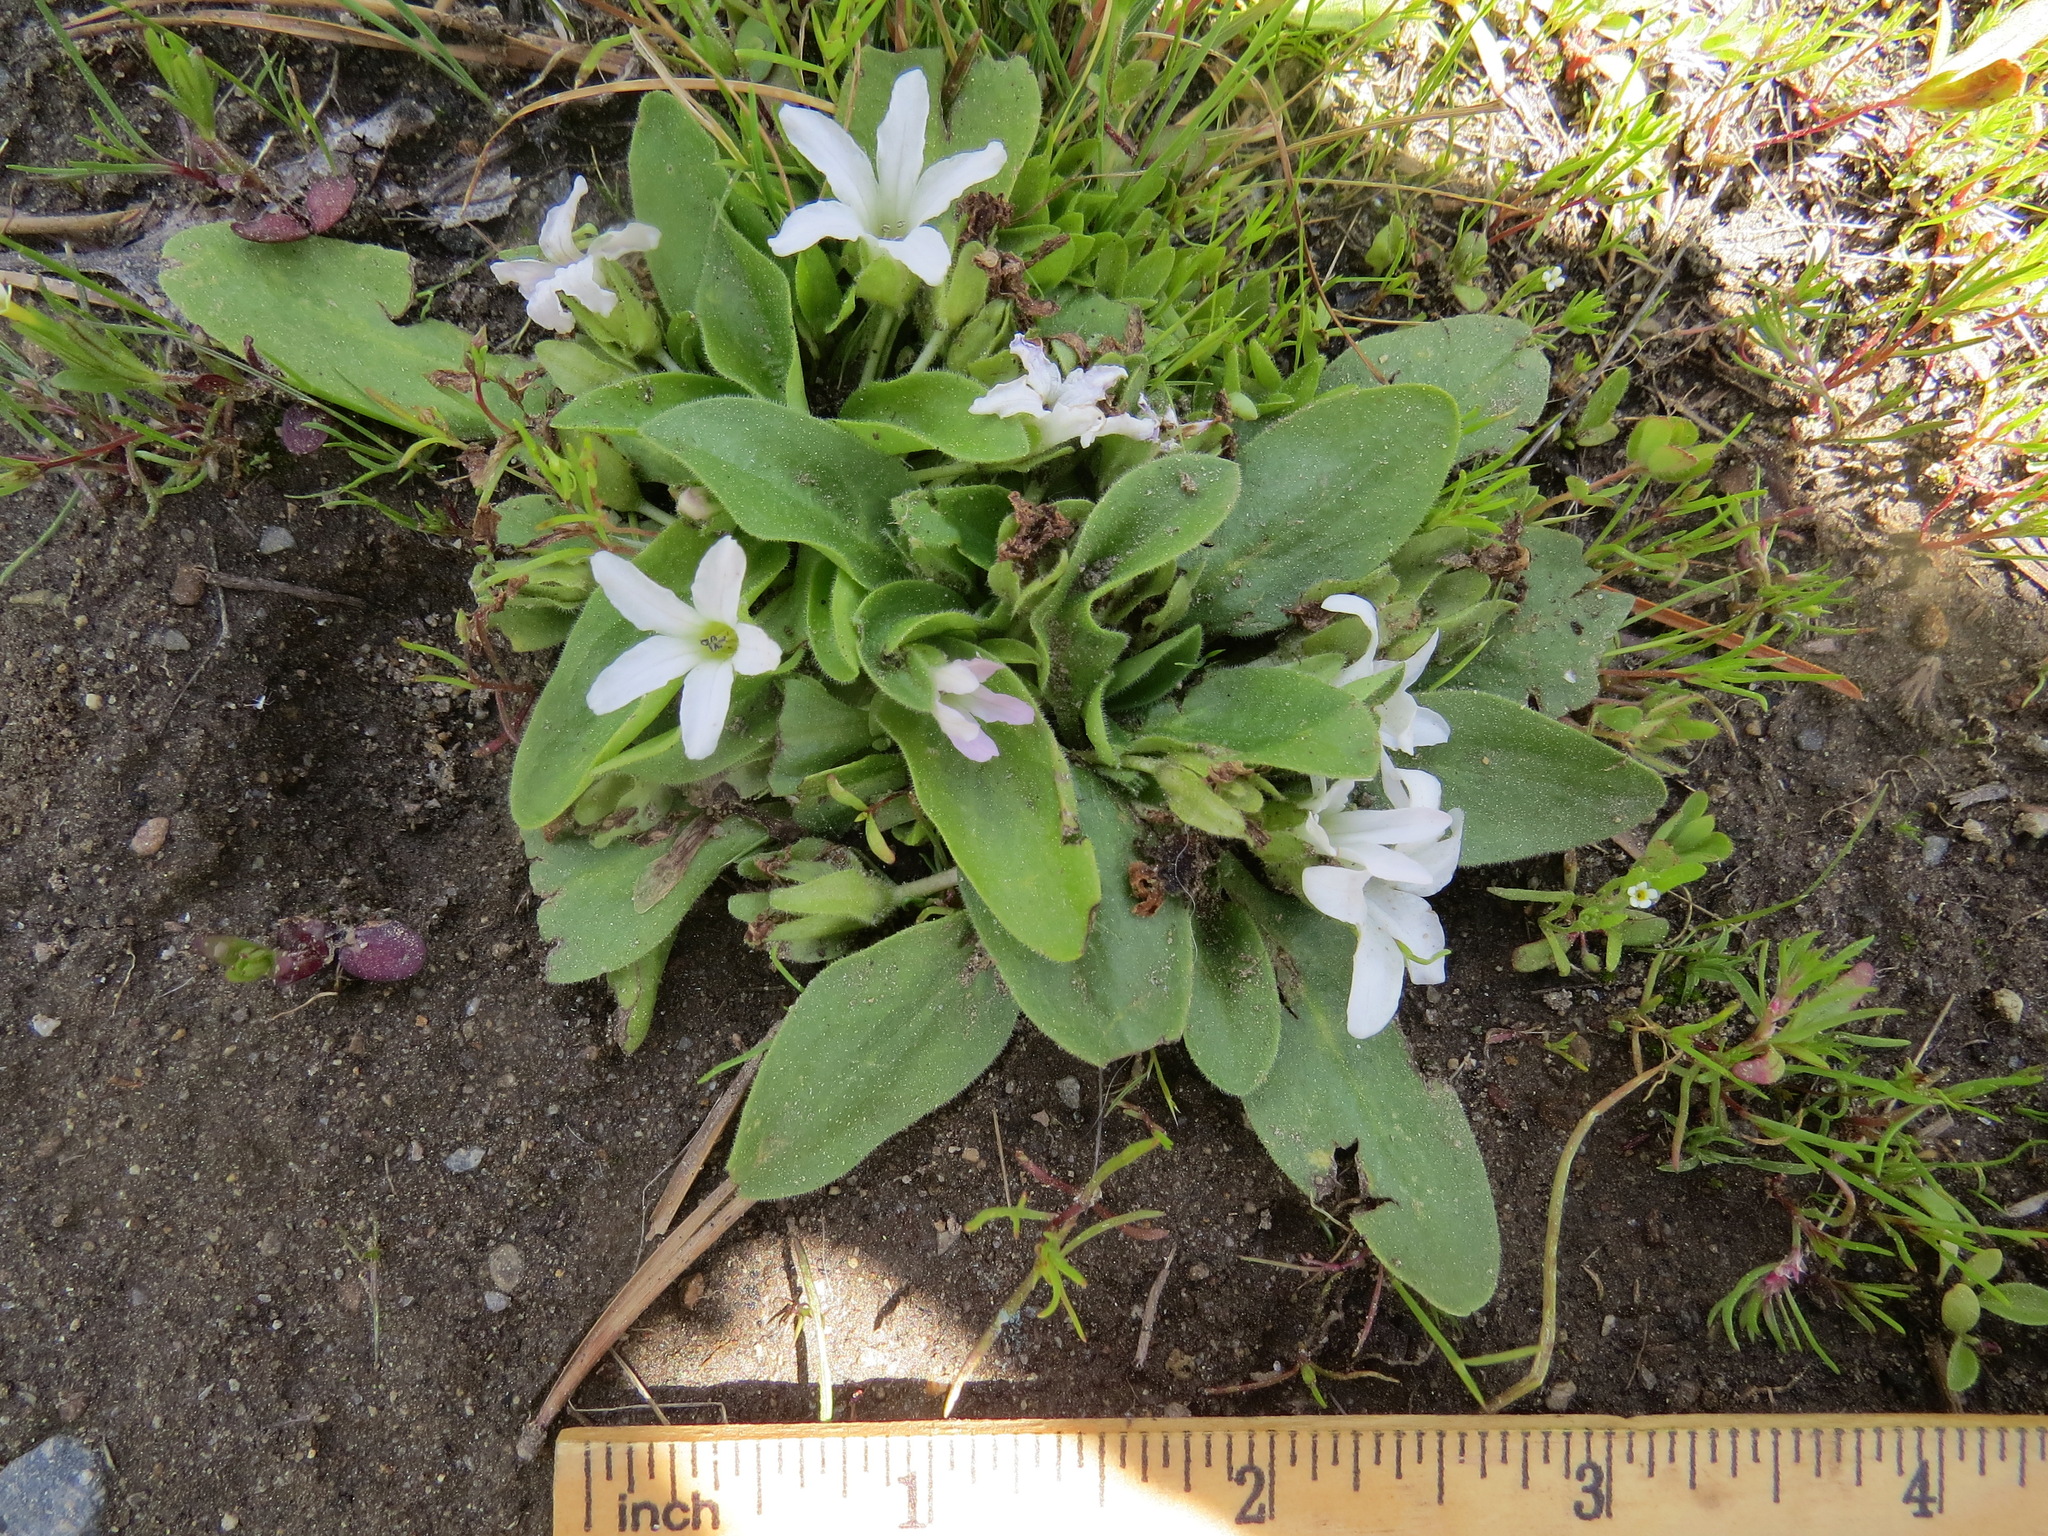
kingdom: Plantae
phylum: Tracheophyta
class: Magnoliopsida
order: Boraginales
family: Hydrophyllaceae
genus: Hesperochiron
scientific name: Hesperochiron californicus
